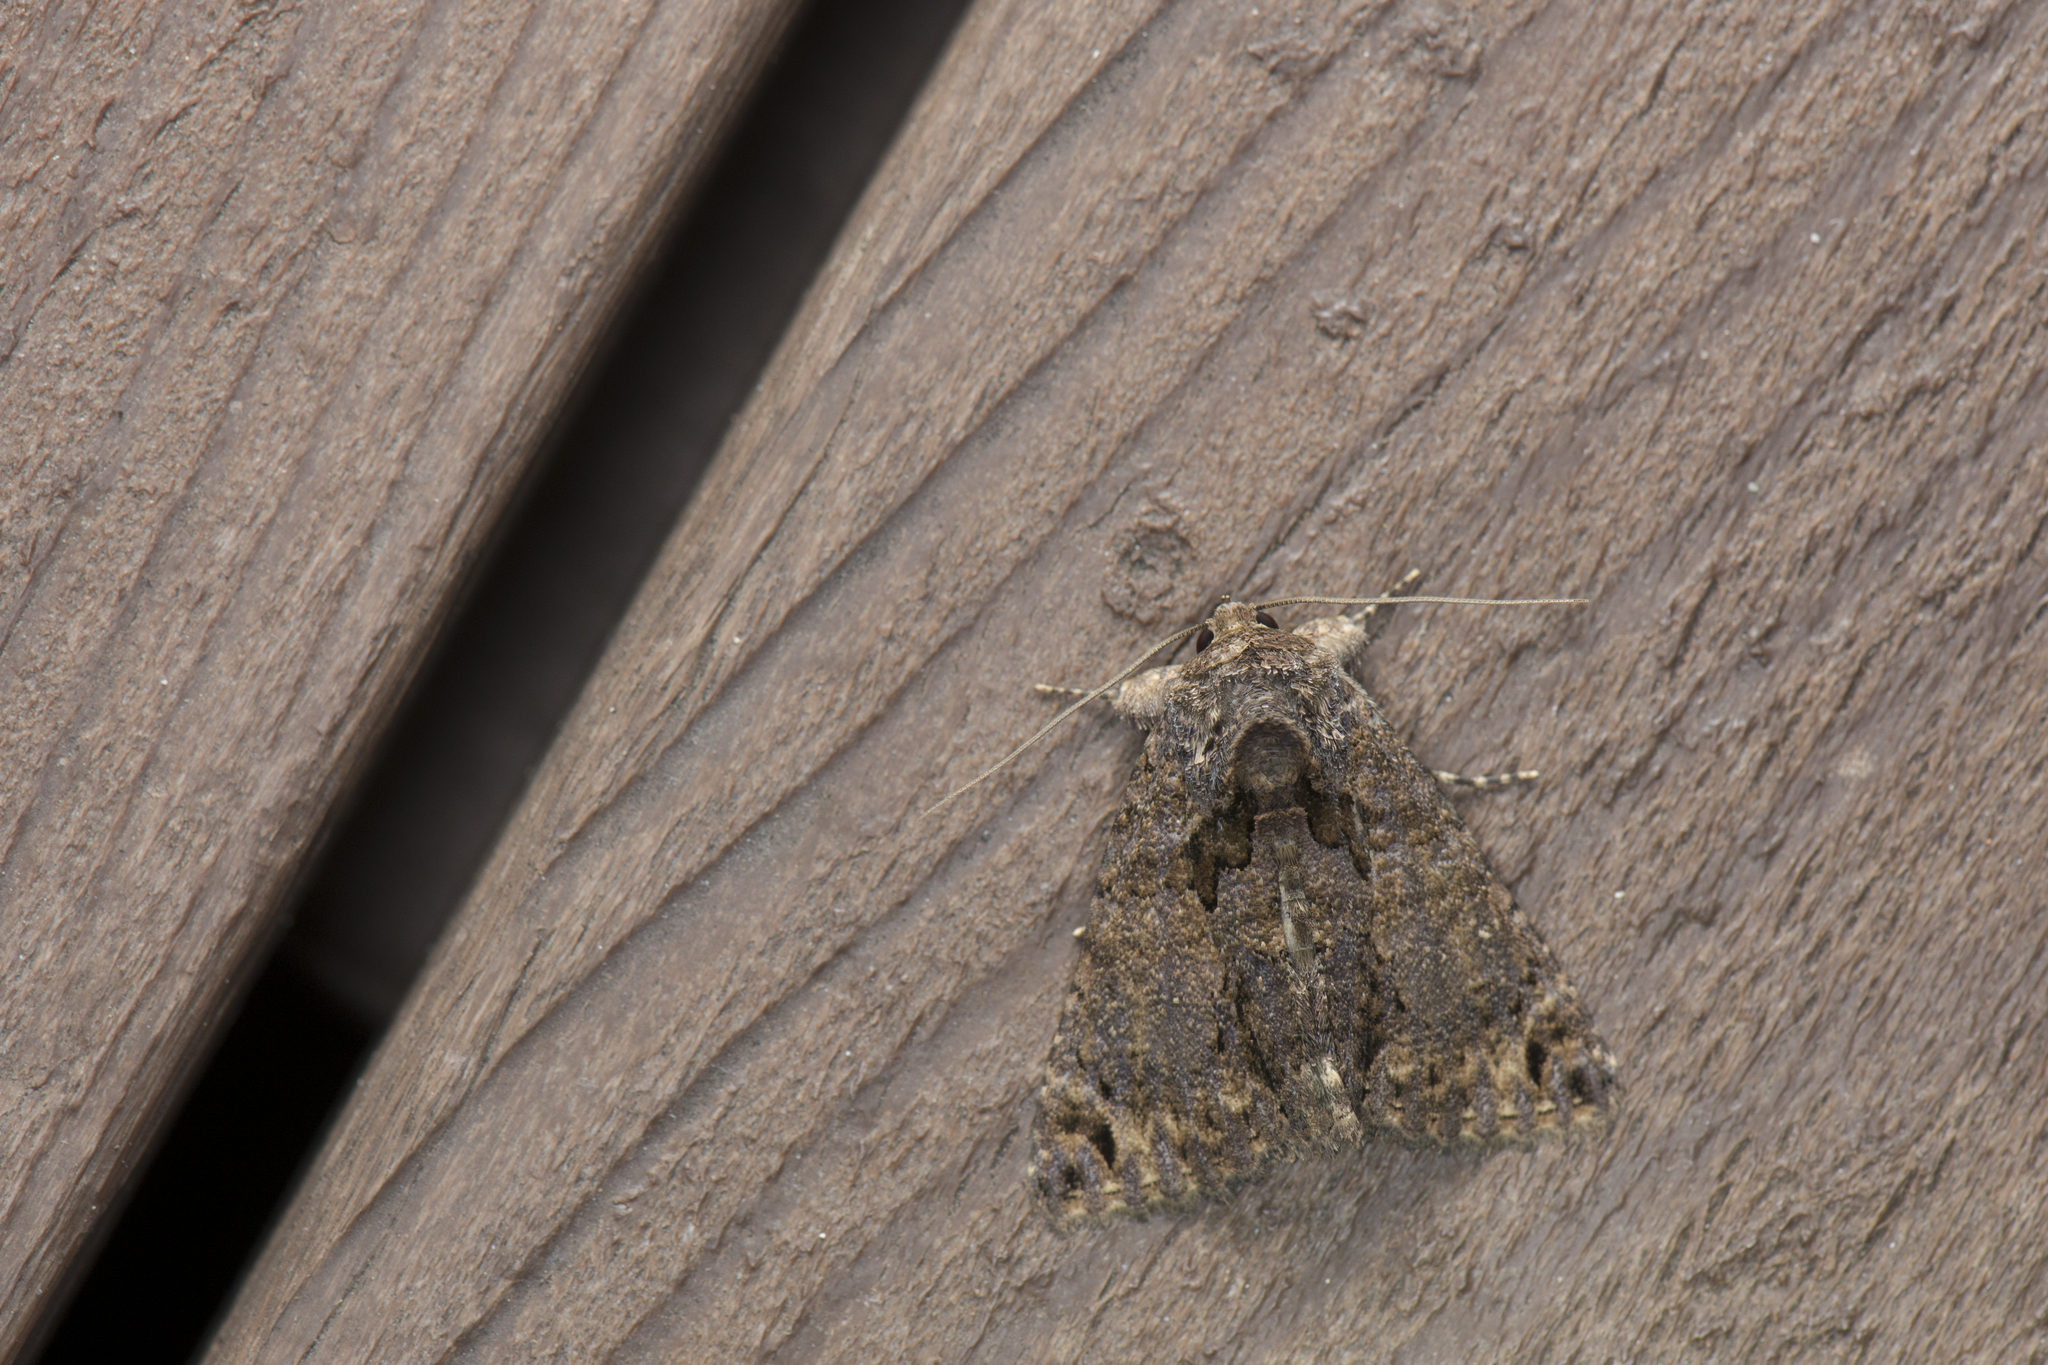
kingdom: Animalia
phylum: Arthropoda
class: Insecta
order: Lepidoptera
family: Erebidae
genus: Erygia
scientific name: Erygia apicalis
